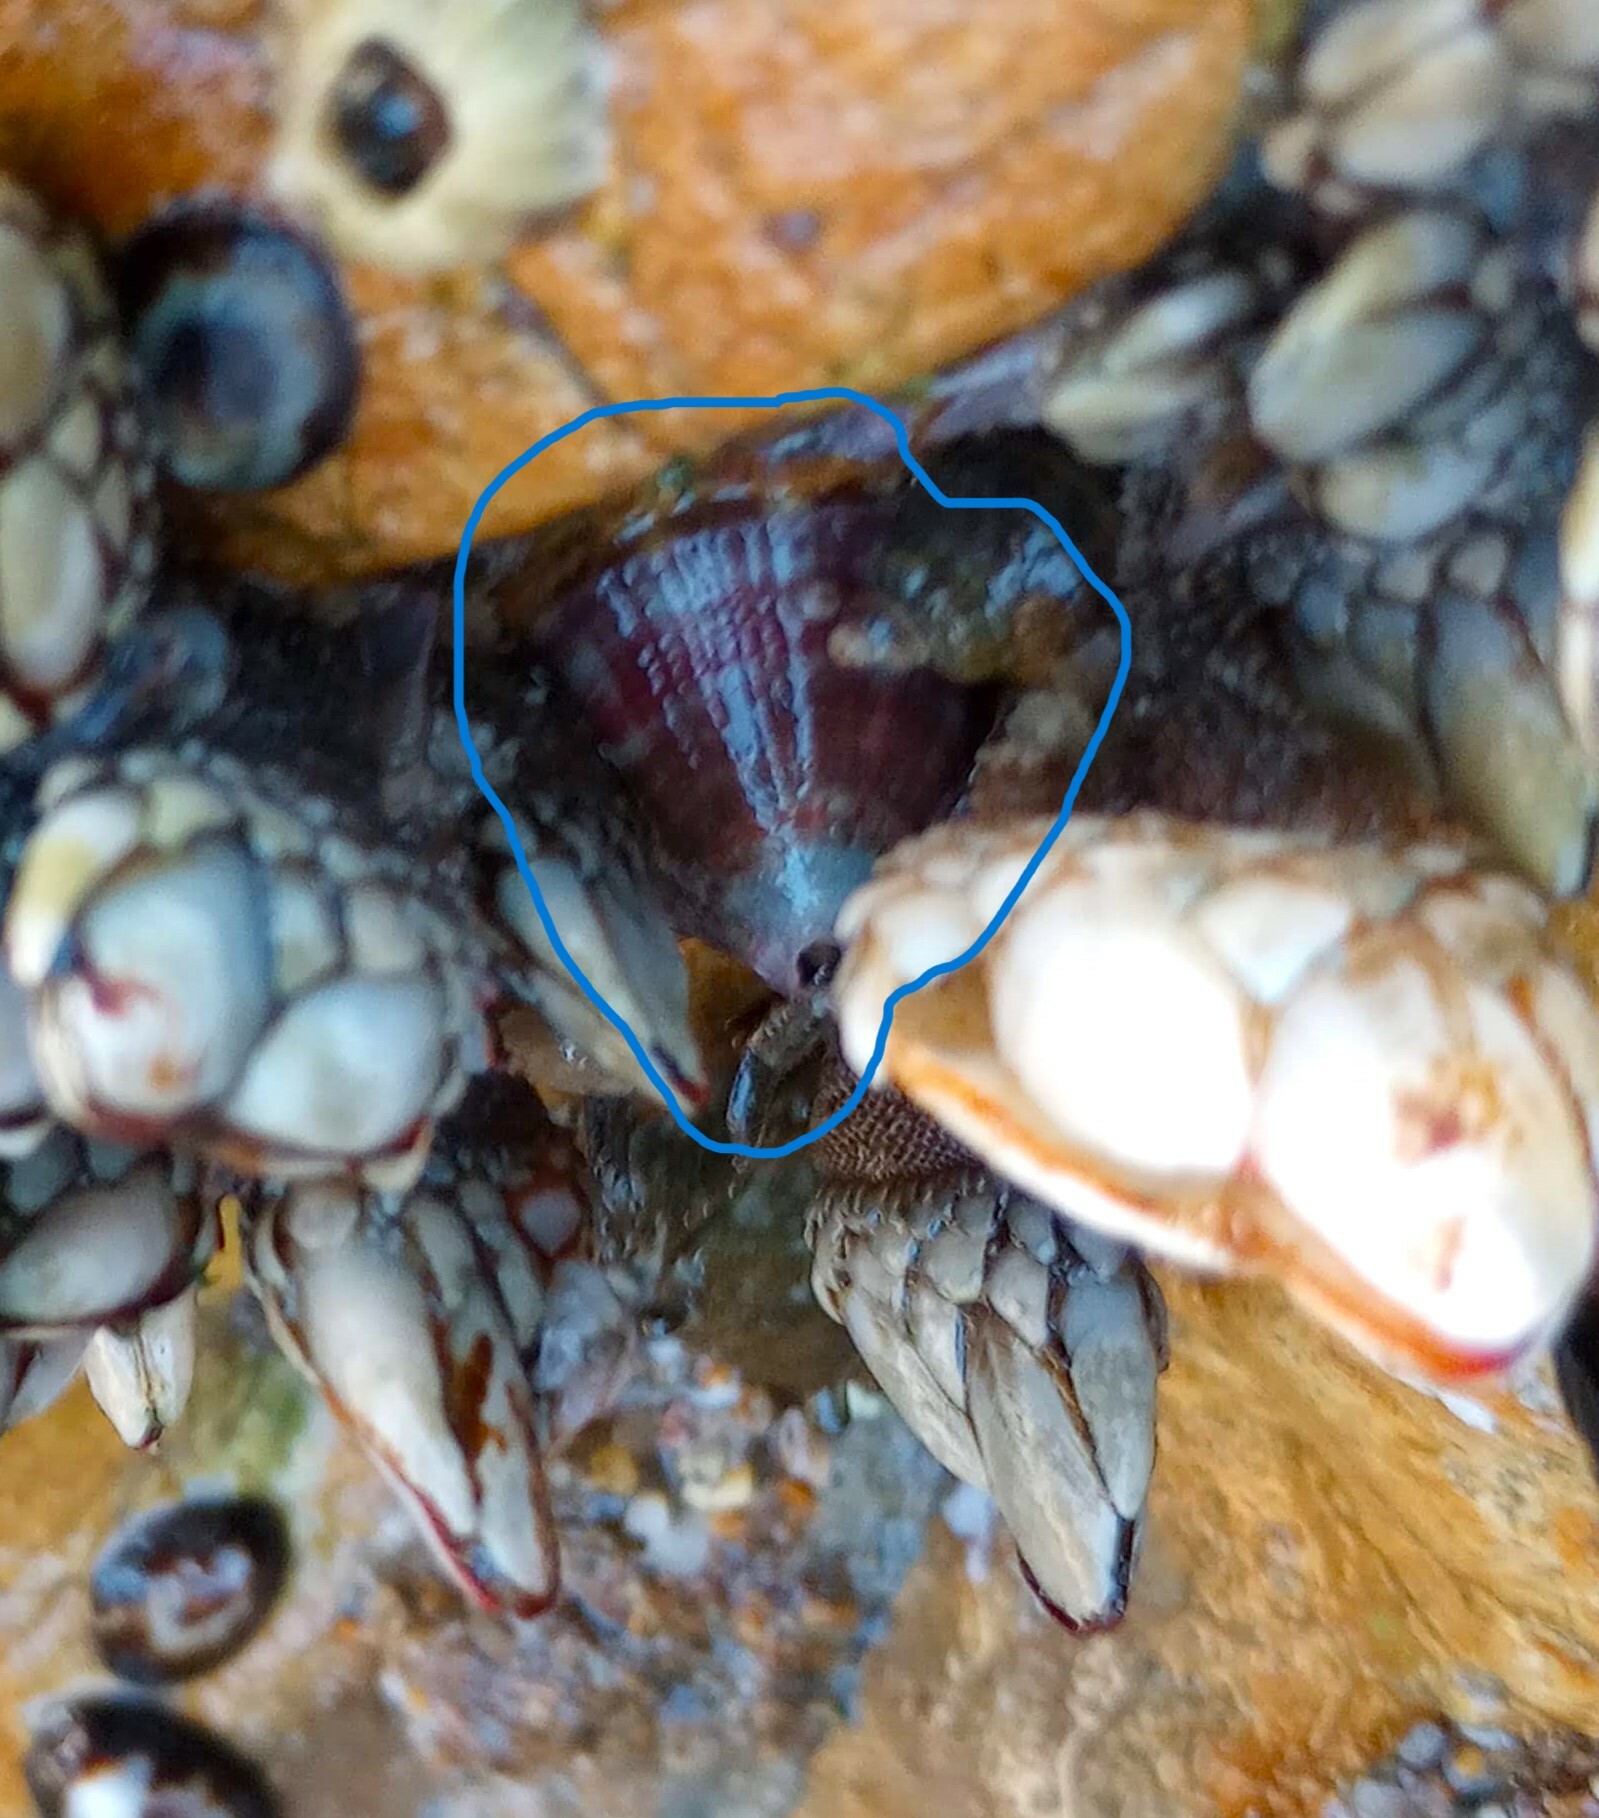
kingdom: Animalia
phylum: Mollusca
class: Gastropoda
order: Lepetellida
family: Fissurellidae
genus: Fissurella
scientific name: Fissurella volcano
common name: Volcano keyhole limpet
